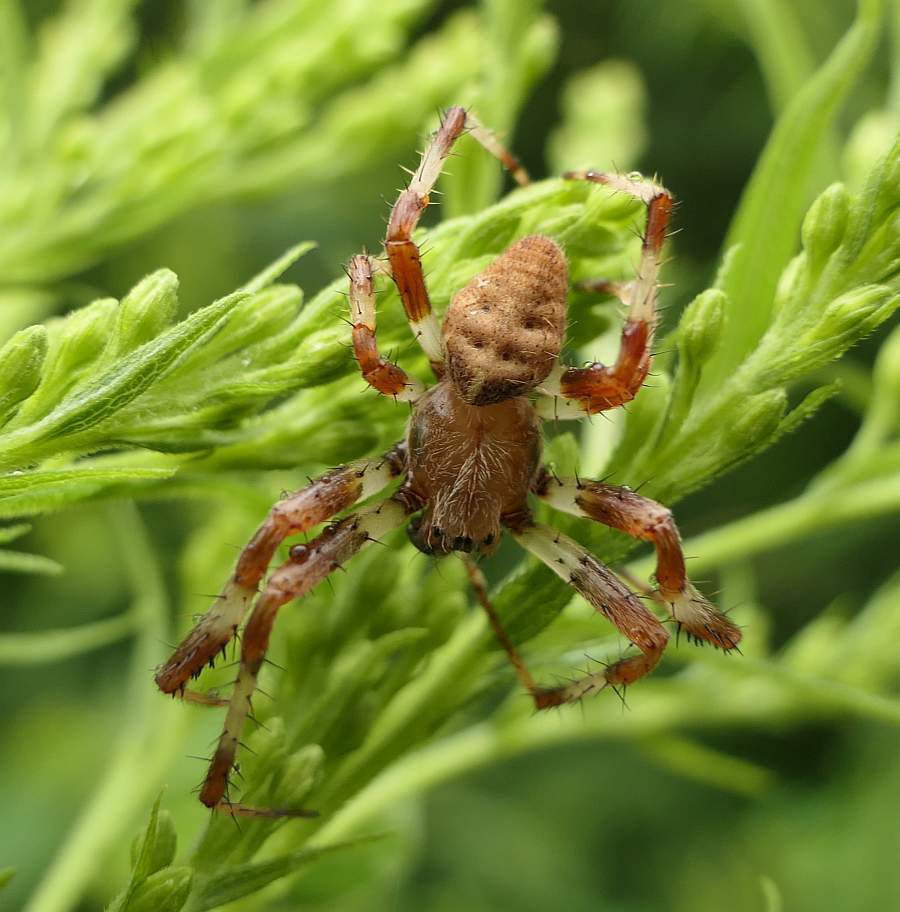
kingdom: Animalia
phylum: Arthropoda
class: Arachnida
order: Araneae
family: Araneidae
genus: Araneus
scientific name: Araneus marmoreus
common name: Marbled orbweaver
